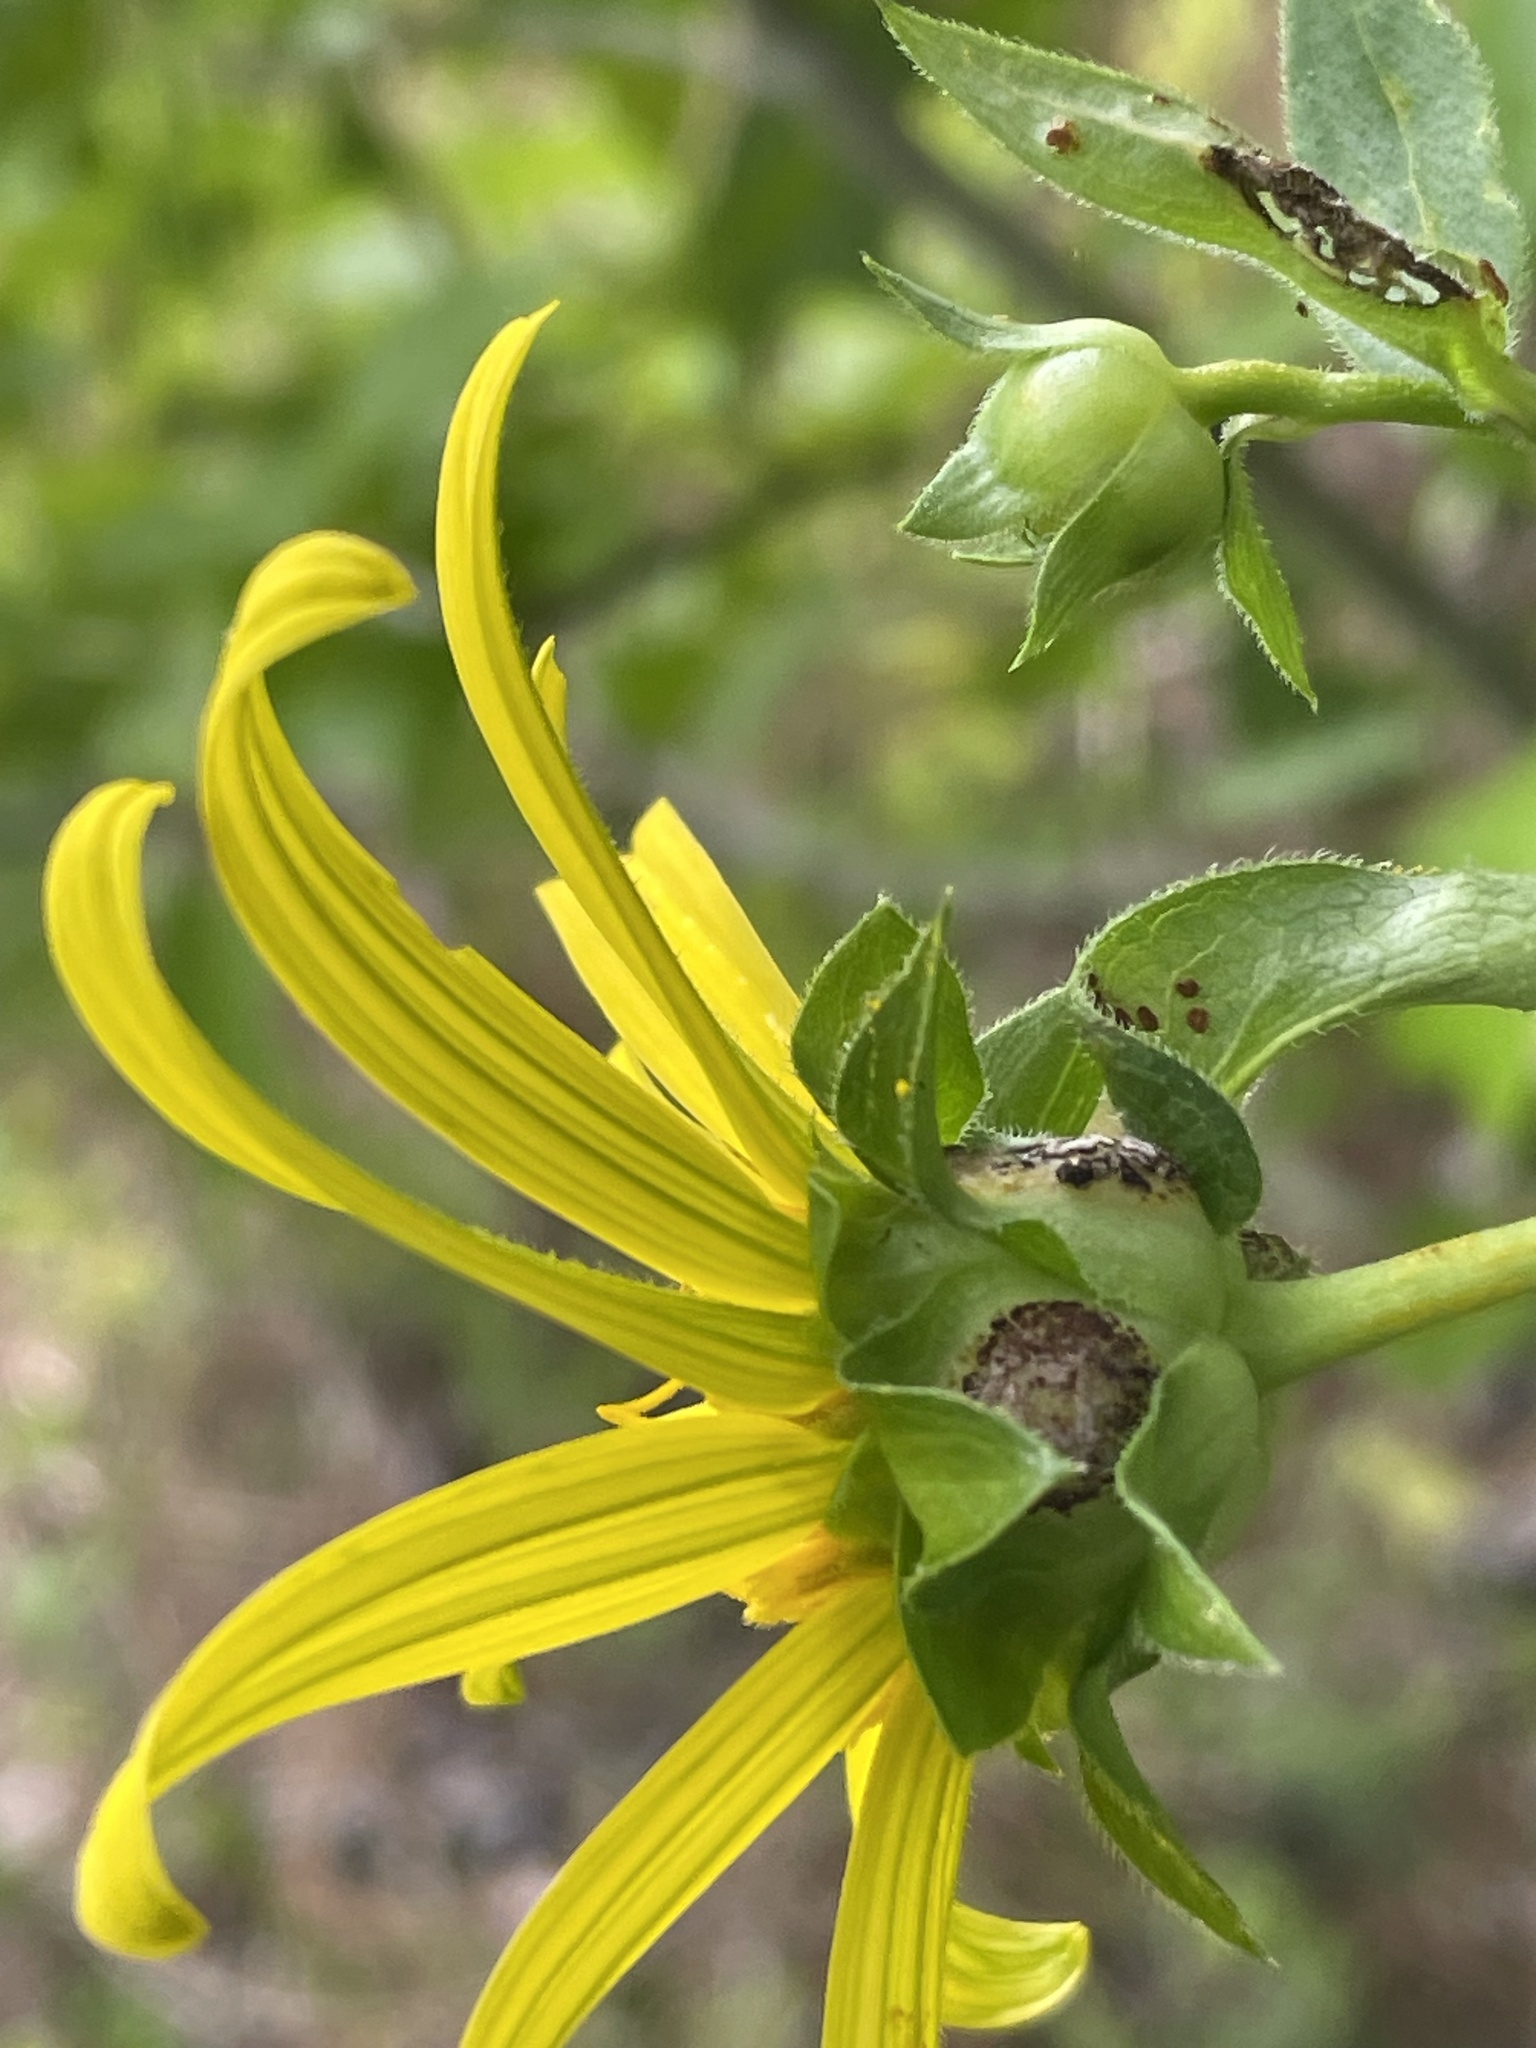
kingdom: Plantae
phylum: Tracheophyta
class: Magnoliopsida
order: Asterales
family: Asteraceae
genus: Silphium
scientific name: Silphium asteriscus
